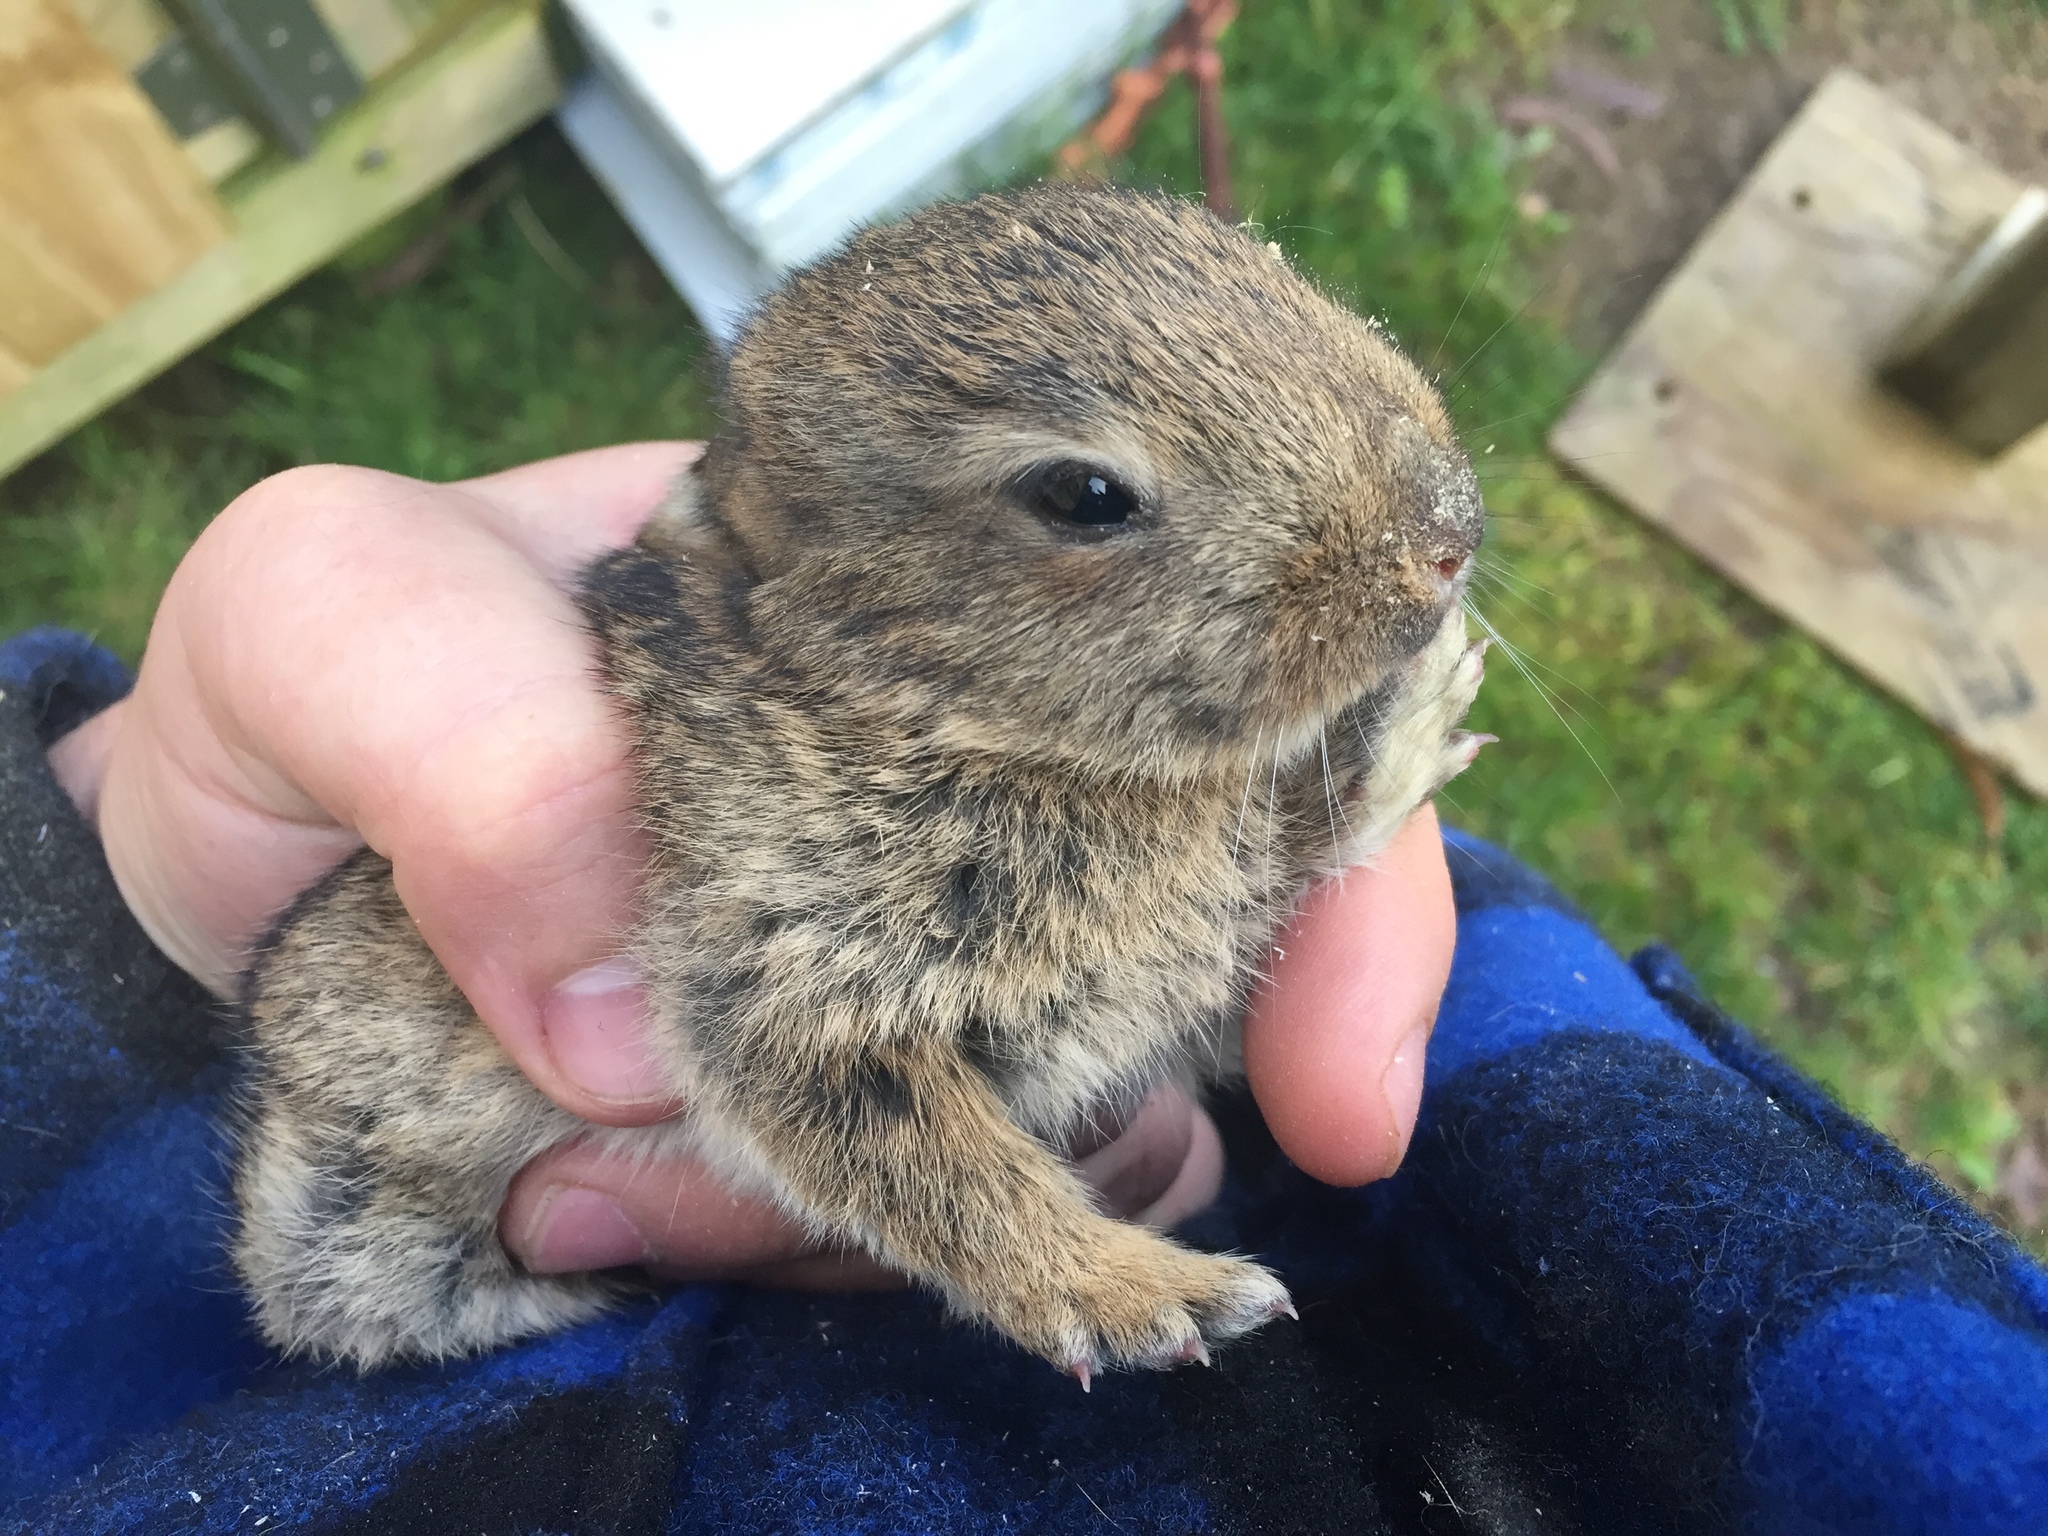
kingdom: Animalia
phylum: Chordata
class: Mammalia
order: Lagomorpha
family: Leporidae
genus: Oryctolagus
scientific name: Oryctolagus cuniculus
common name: European rabbit
